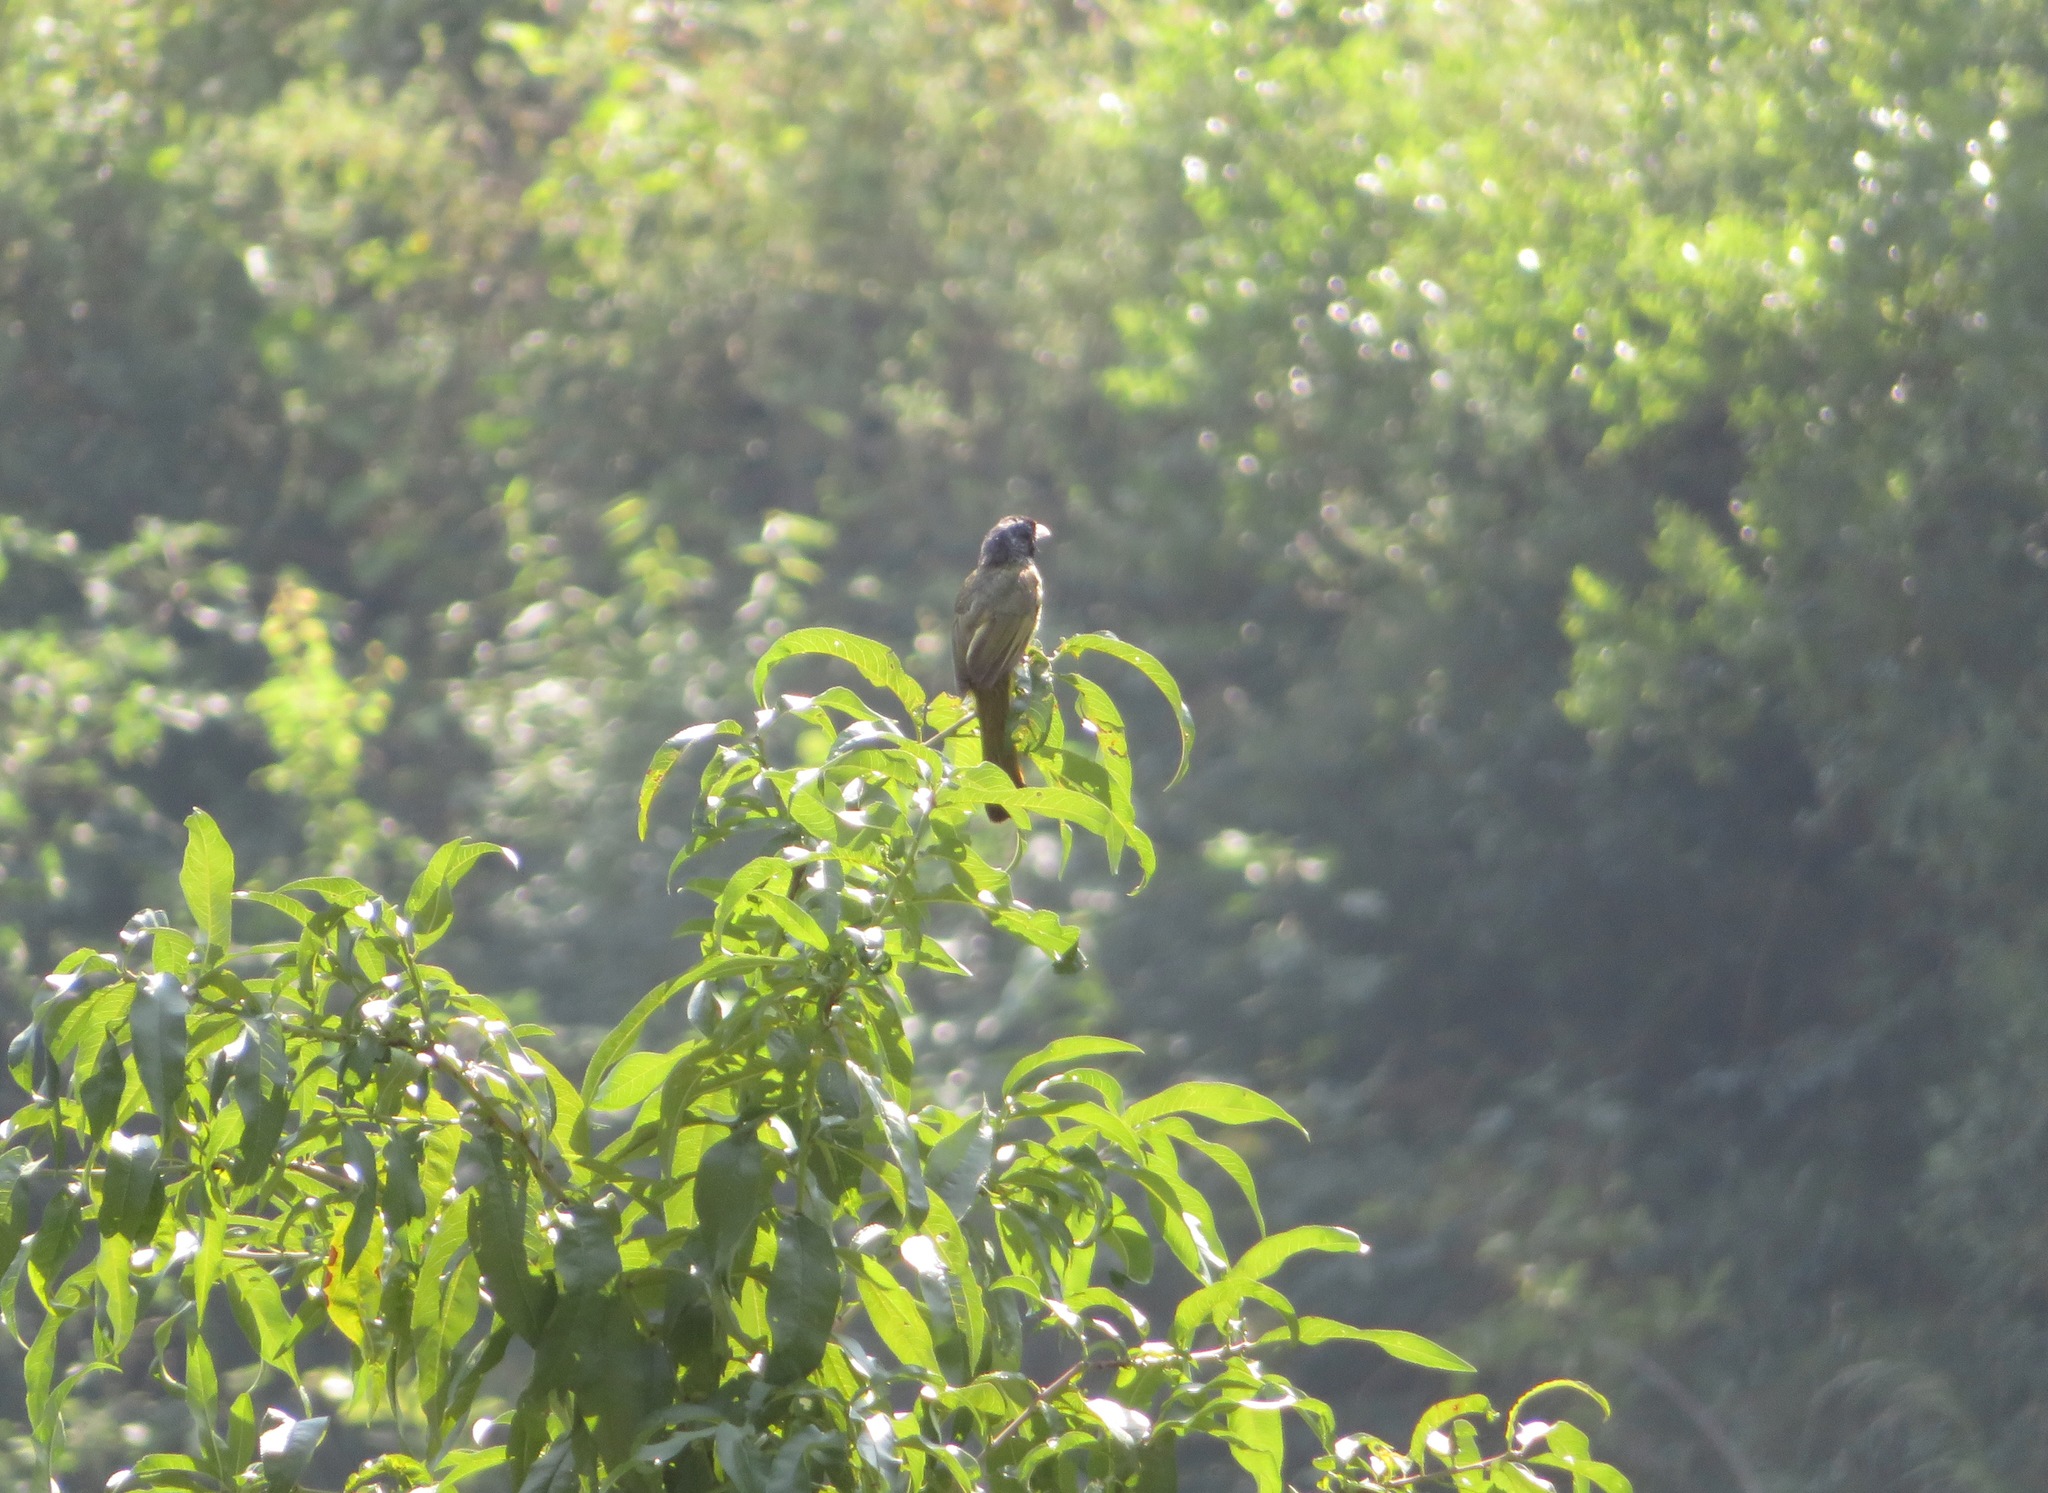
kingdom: Animalia
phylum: Chordata
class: Aves
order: Passeriformes
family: Pycnonotidae
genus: Spizixos
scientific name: Spizixos semitorques
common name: Collared finchbill
